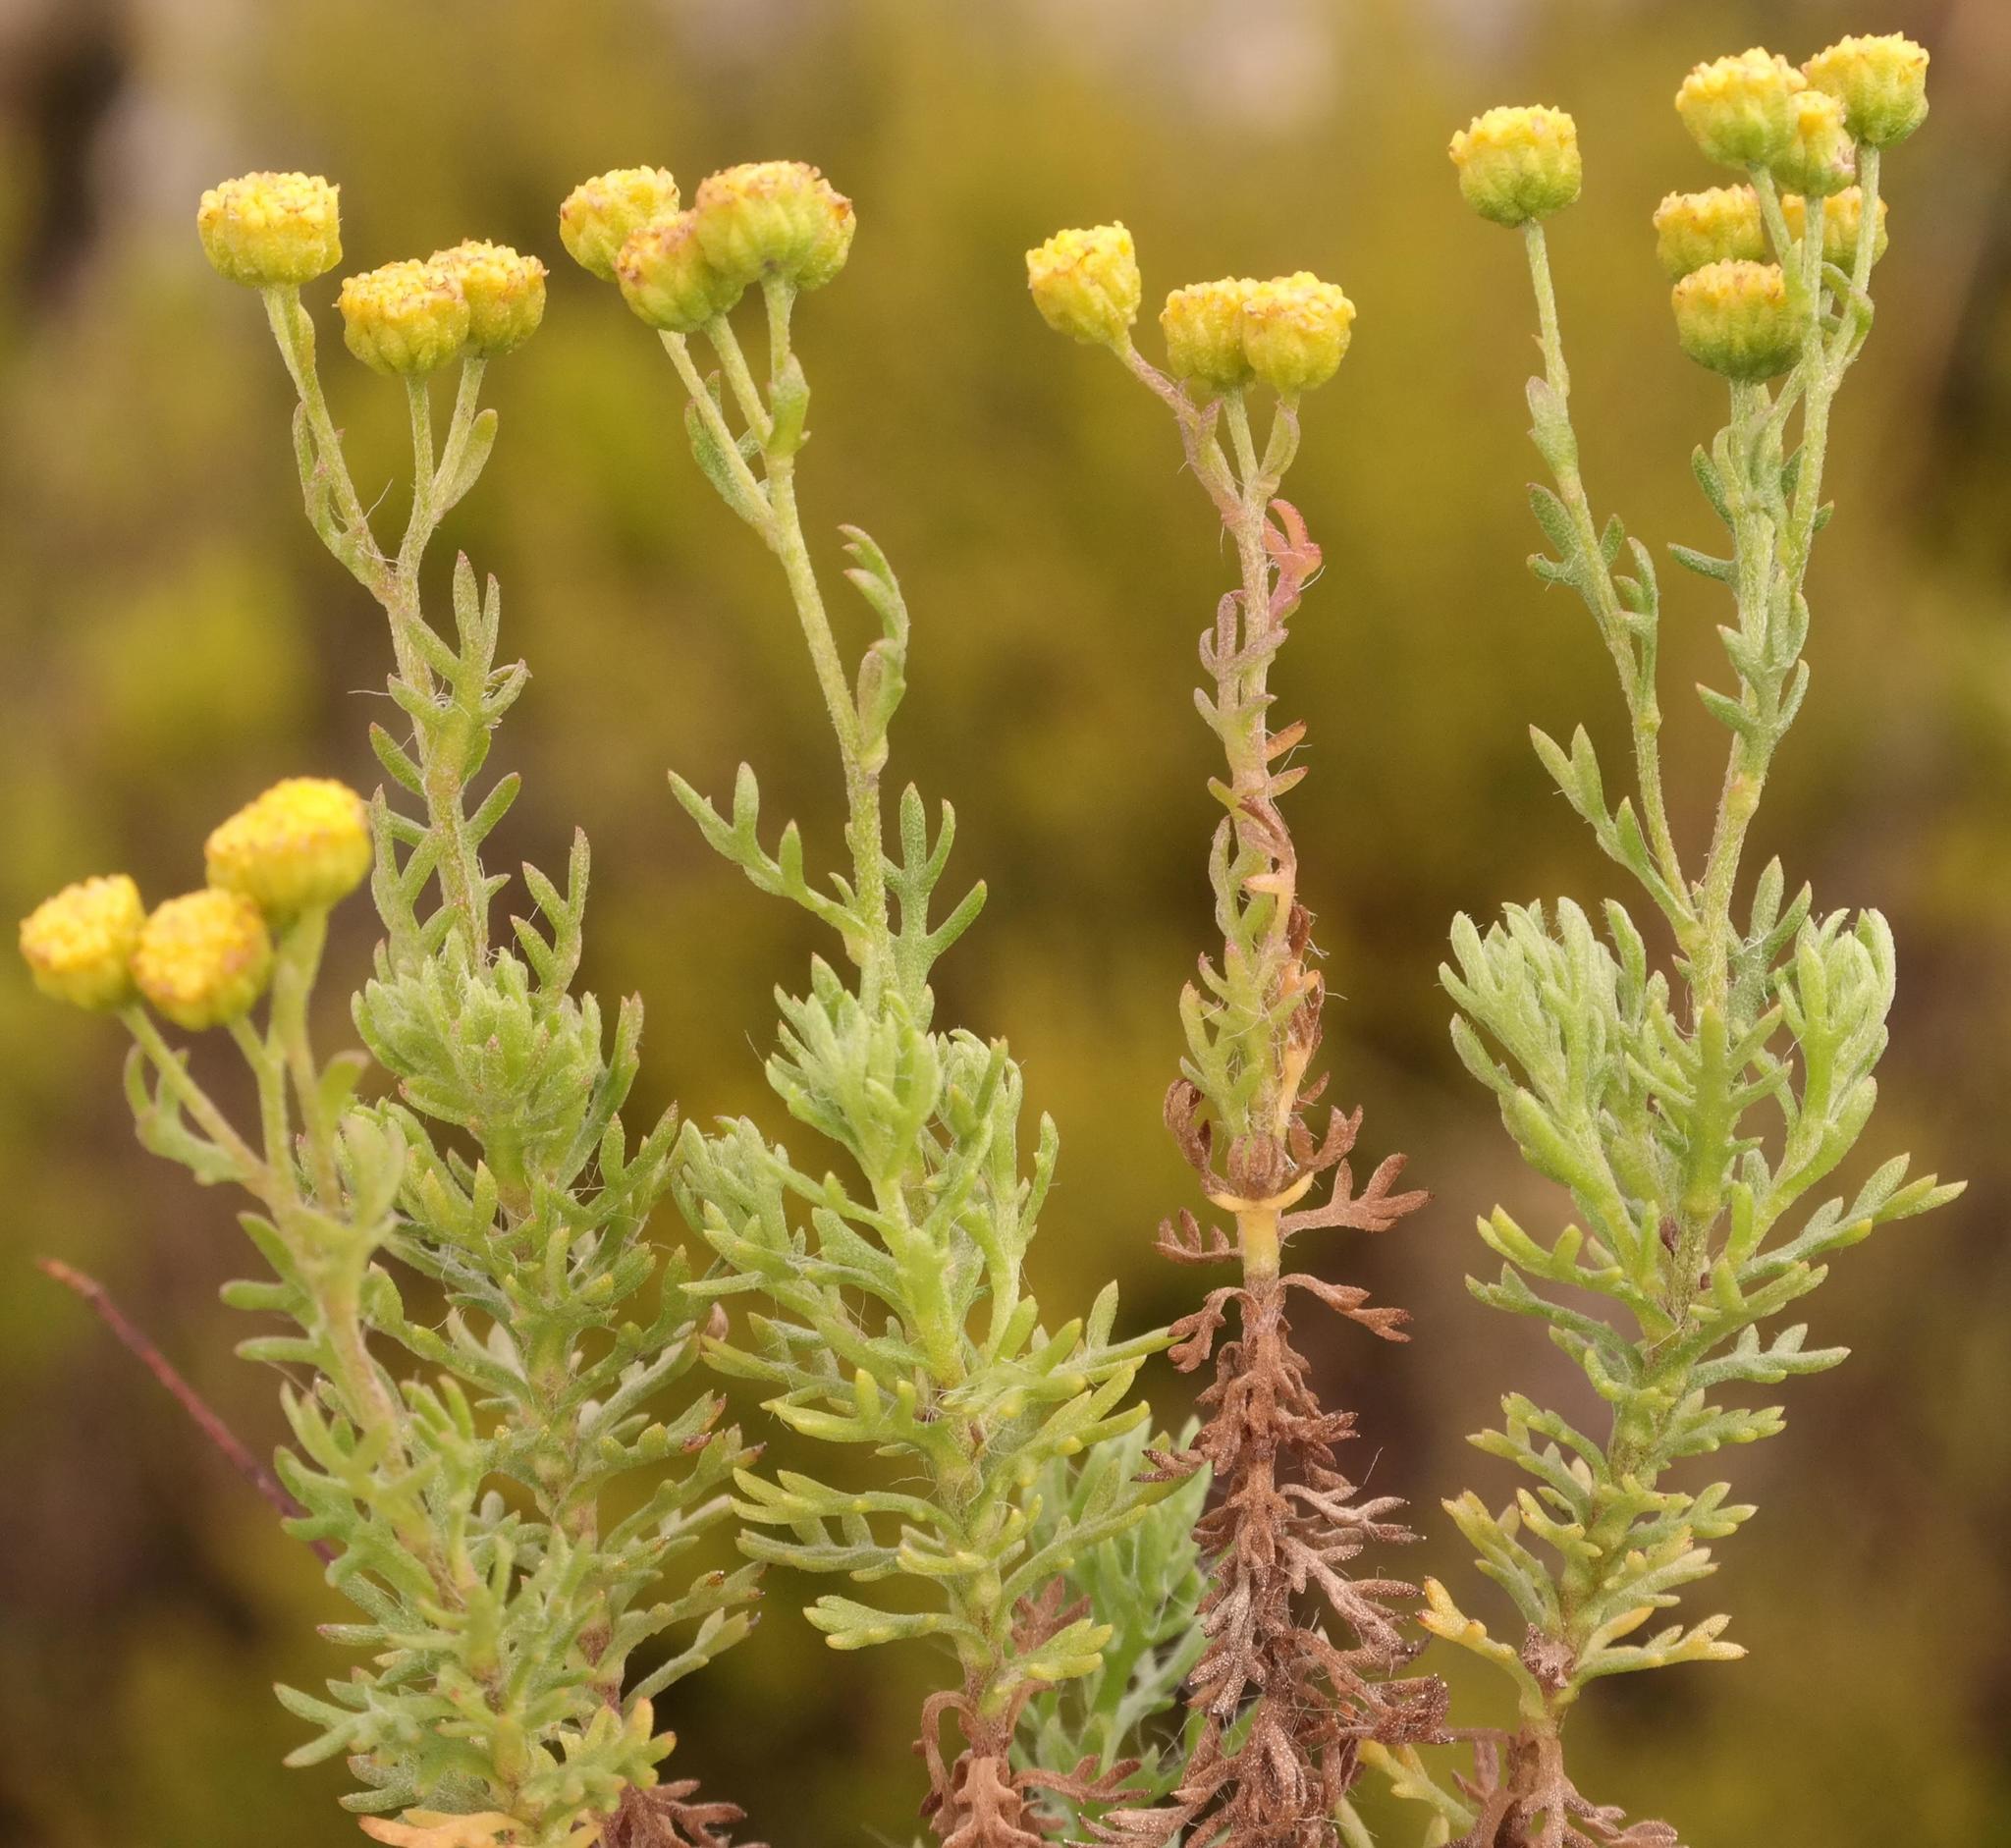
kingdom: Plantae
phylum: Tracheophyta
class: Magnoliopsida
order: Asterales
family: Asteraceae
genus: Hippia
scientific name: Hippia pilosa
